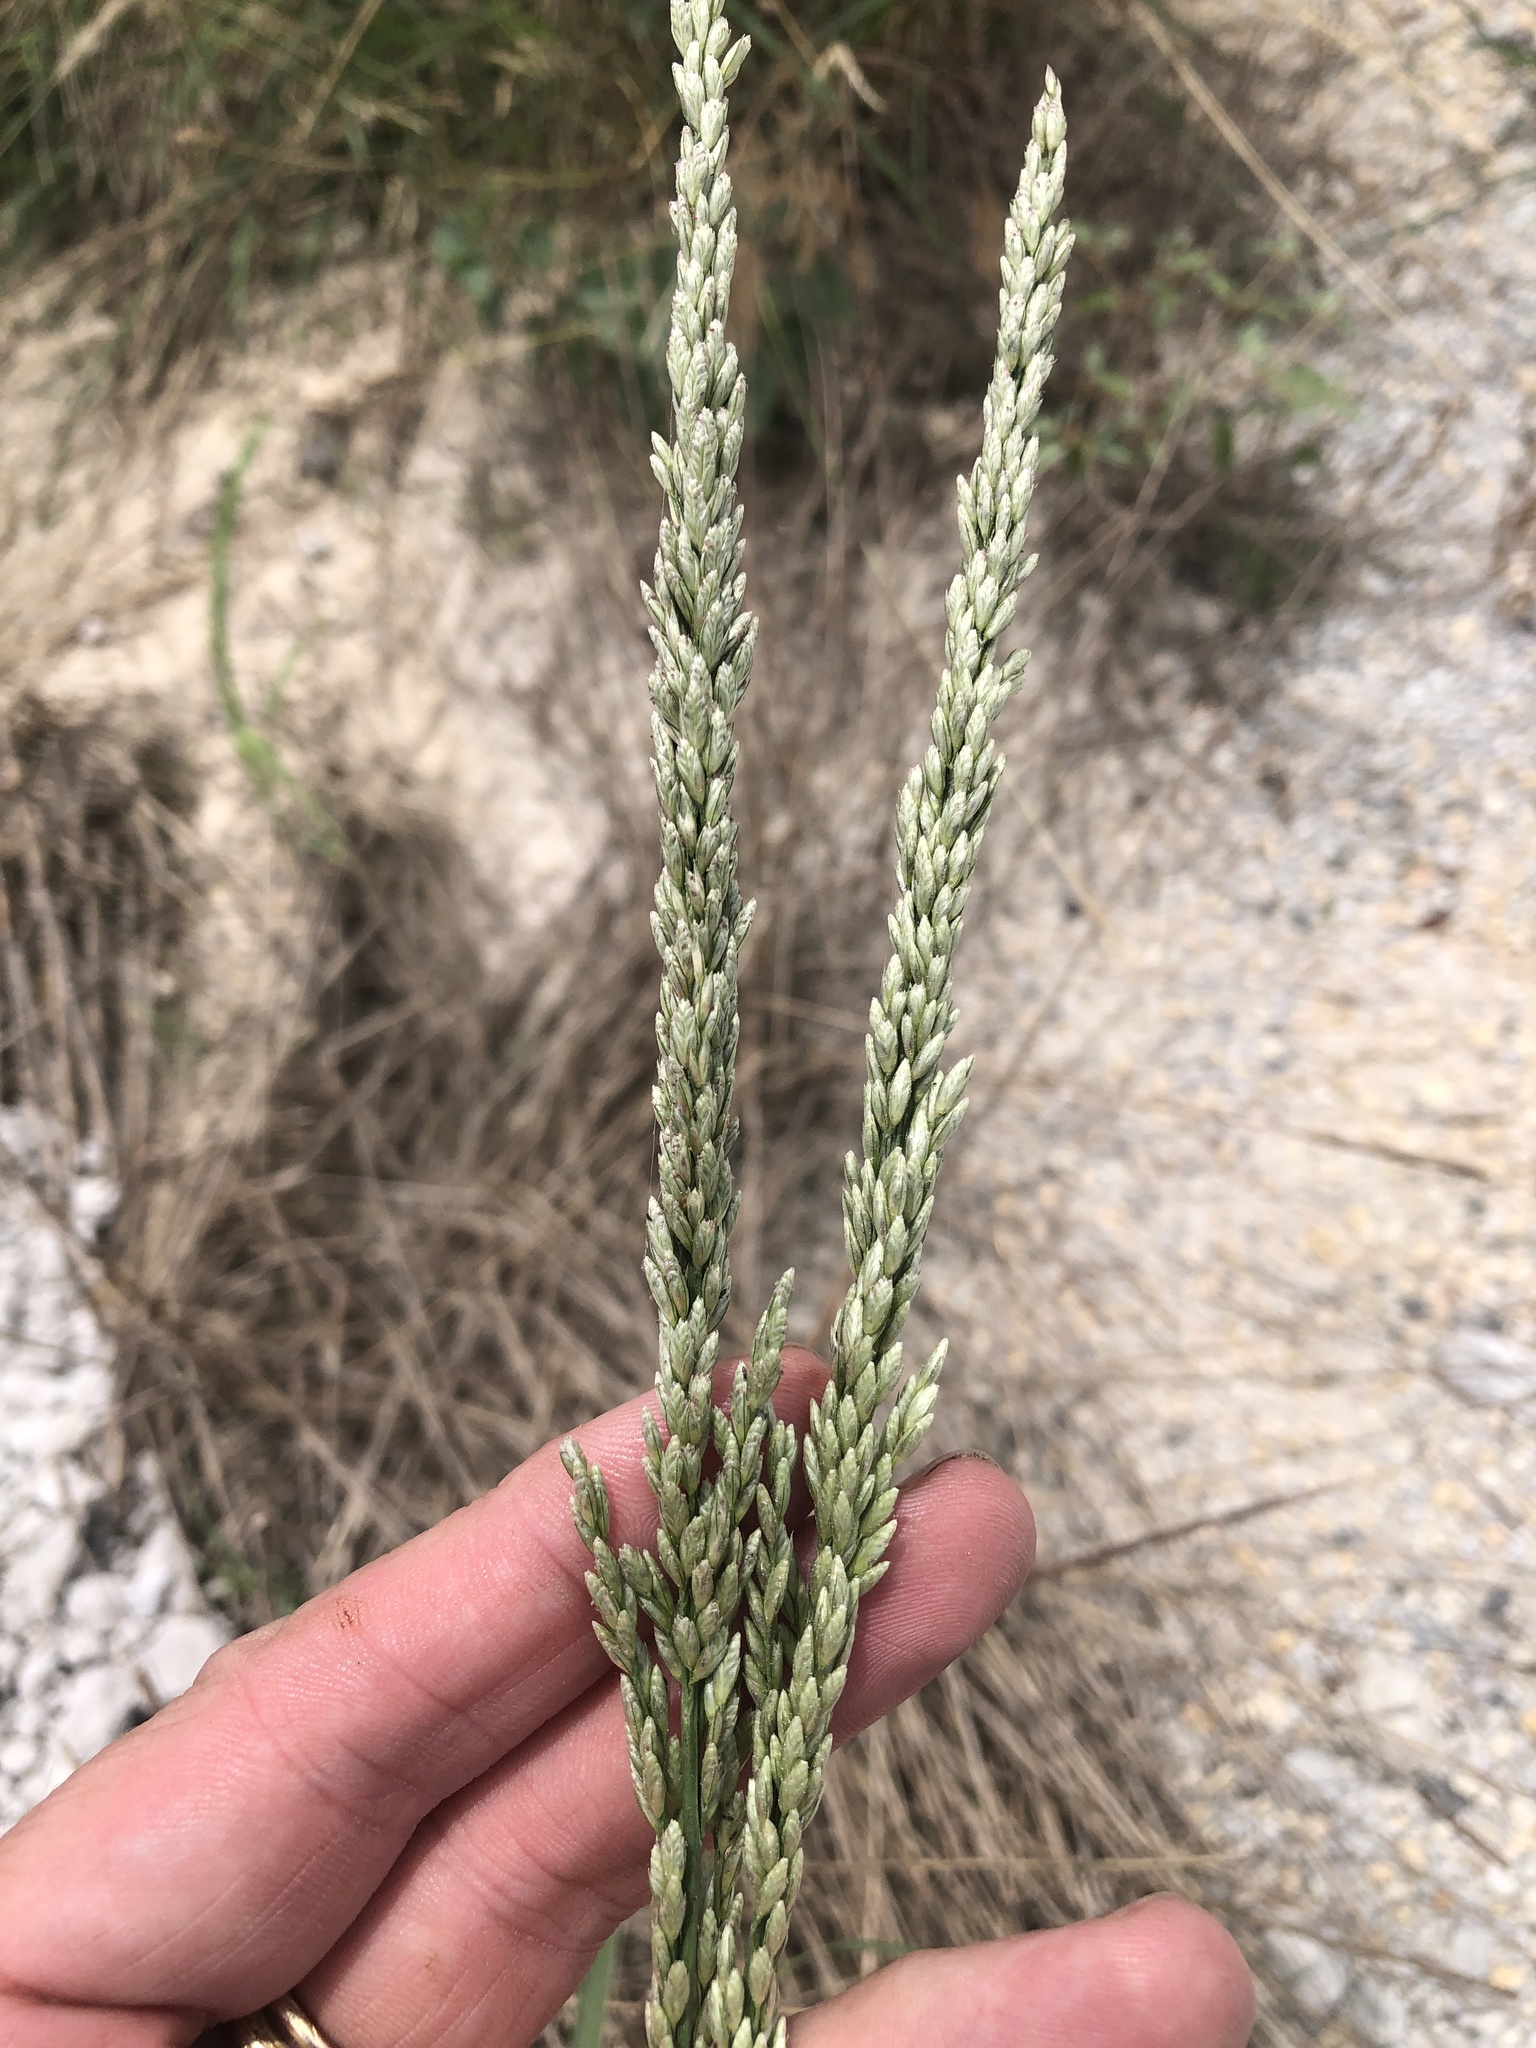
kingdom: Plantae
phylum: Tracheophyta
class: Liliopsida
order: Poales
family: Poaceae
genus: Tridens
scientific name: Tridens albescens
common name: White tridens
